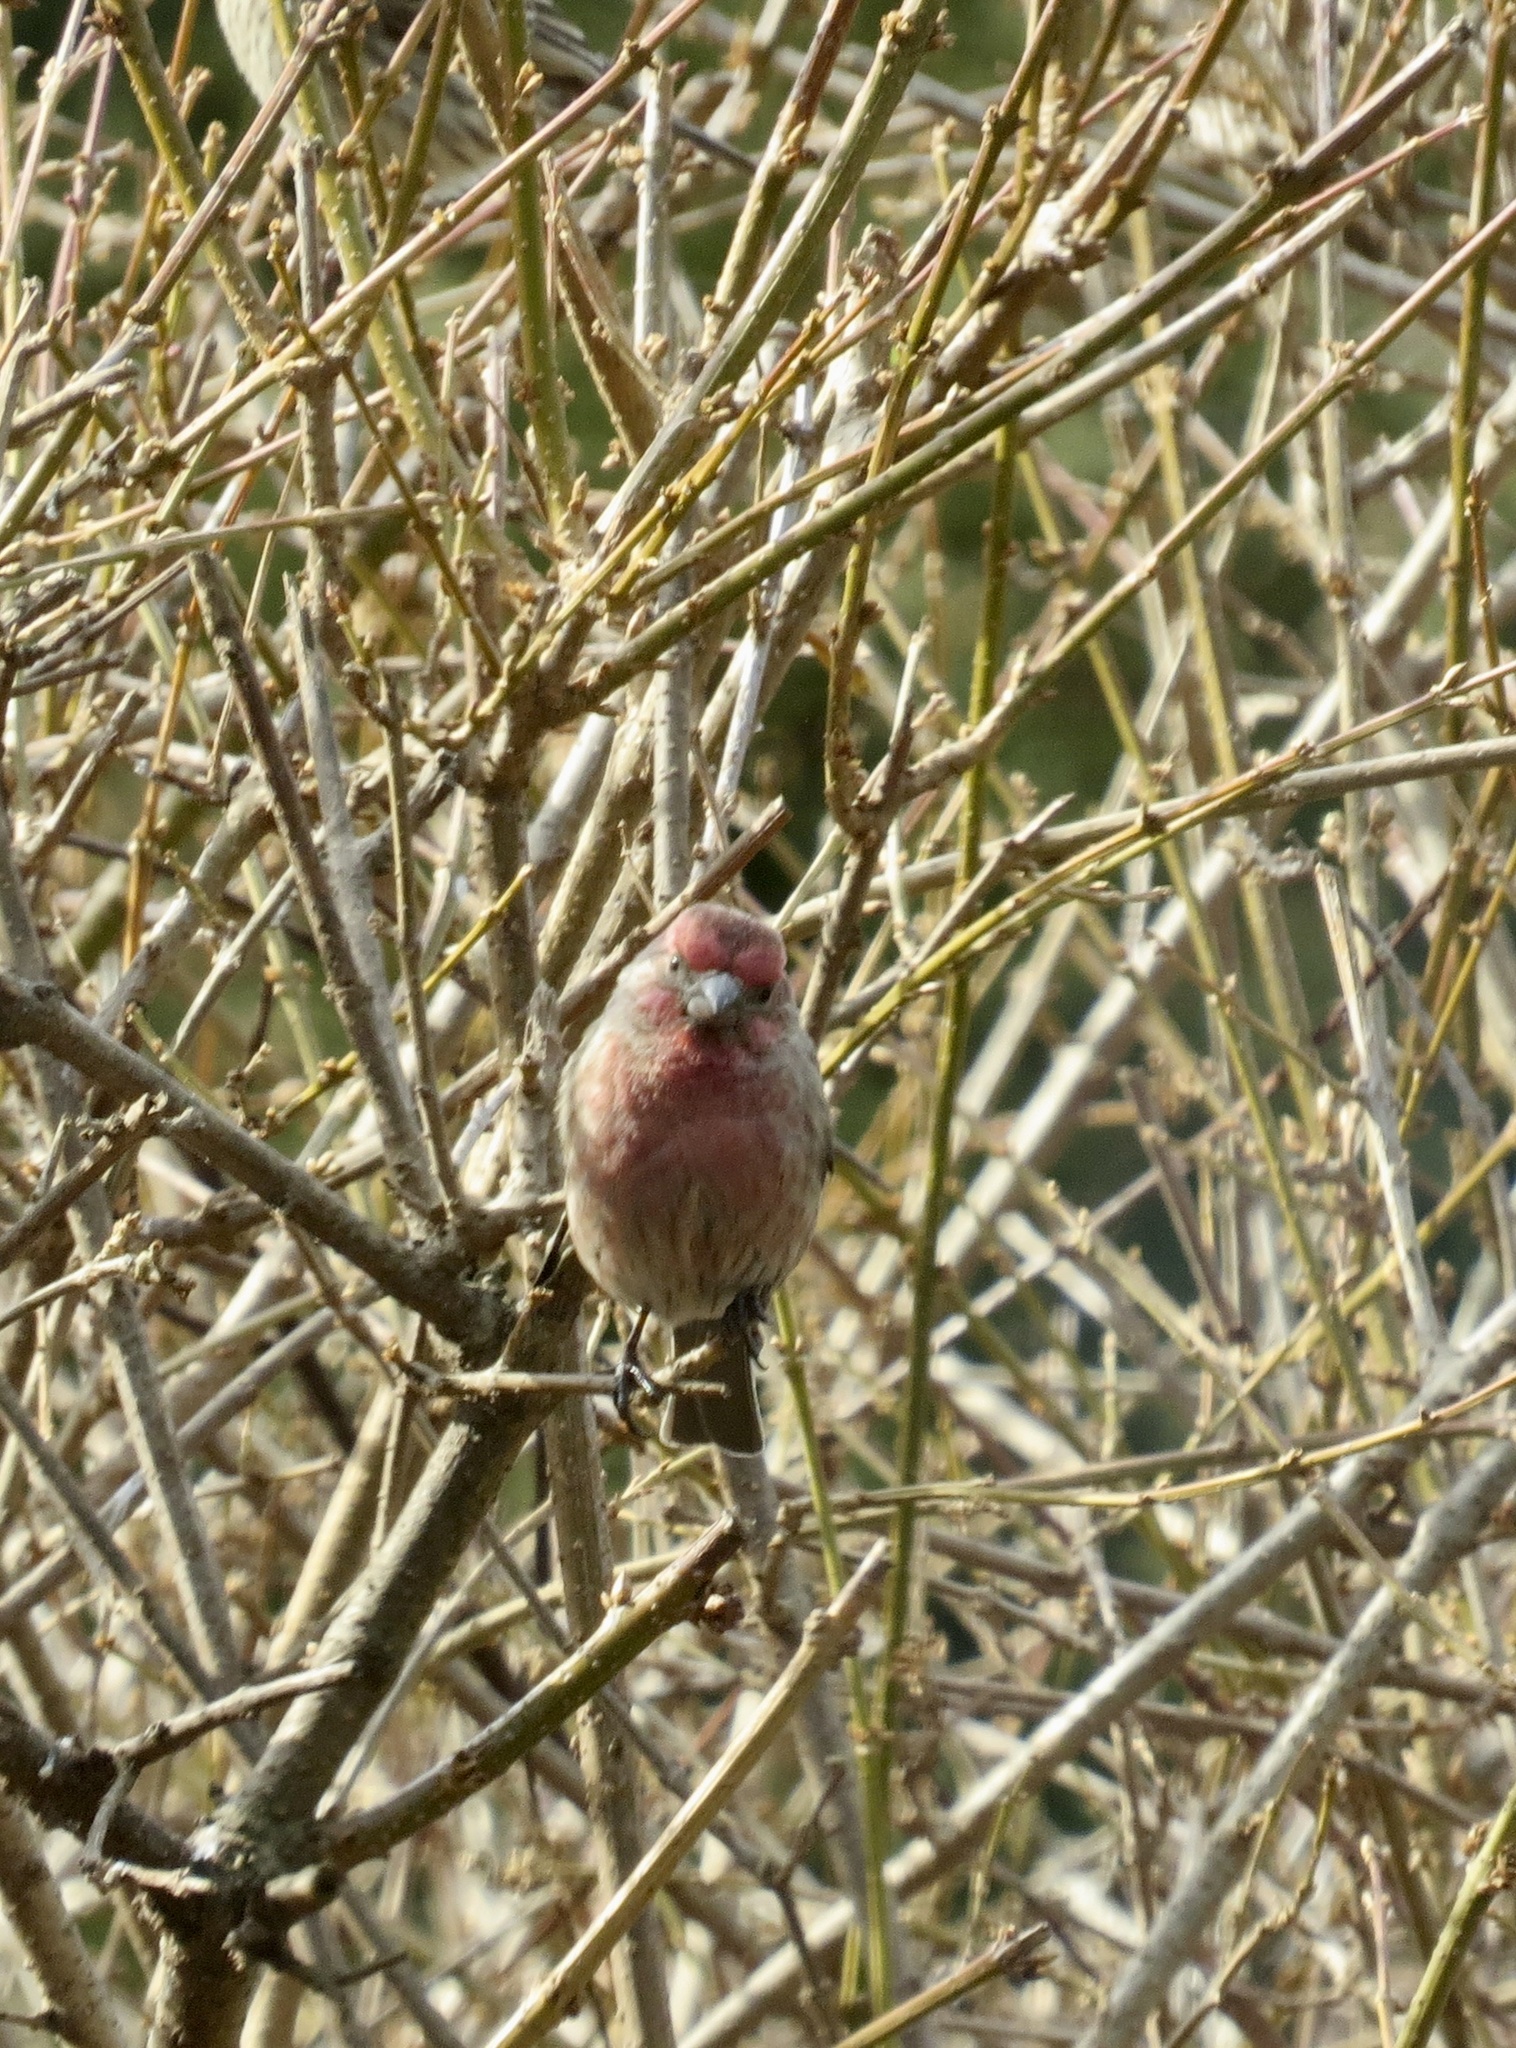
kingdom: Animalia
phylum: Chordata
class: Aves
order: Passeriformes
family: Fringillidae
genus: Haemorhous
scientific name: Haemorhous mexicanus
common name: House finch
